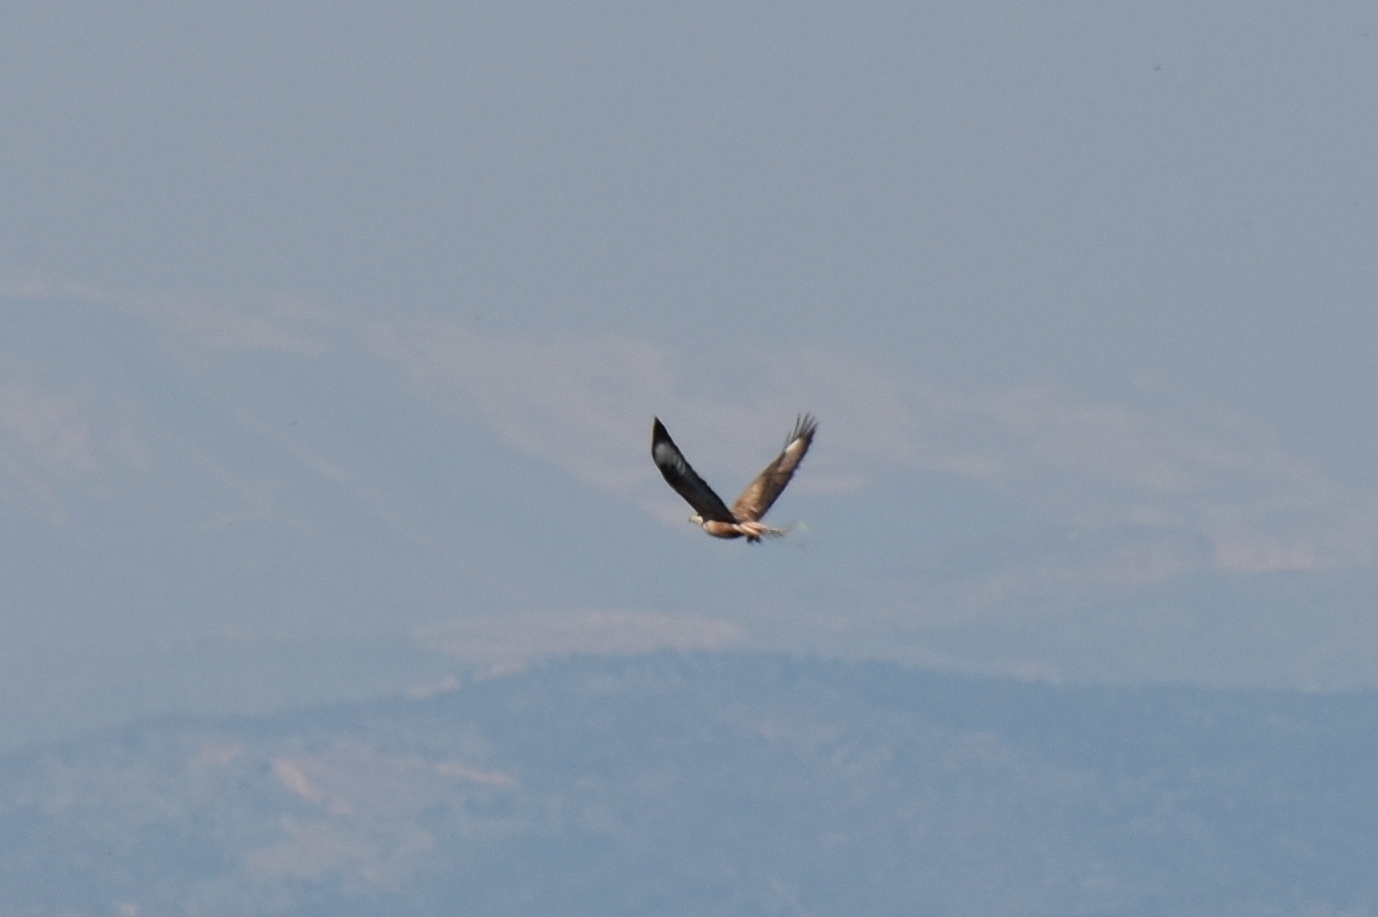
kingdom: Animalia
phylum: Chordata
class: Aves
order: Accipitriformes
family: Accipitridae
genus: Buteo
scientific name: Buteo rufinus
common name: Long-legged buzzard
